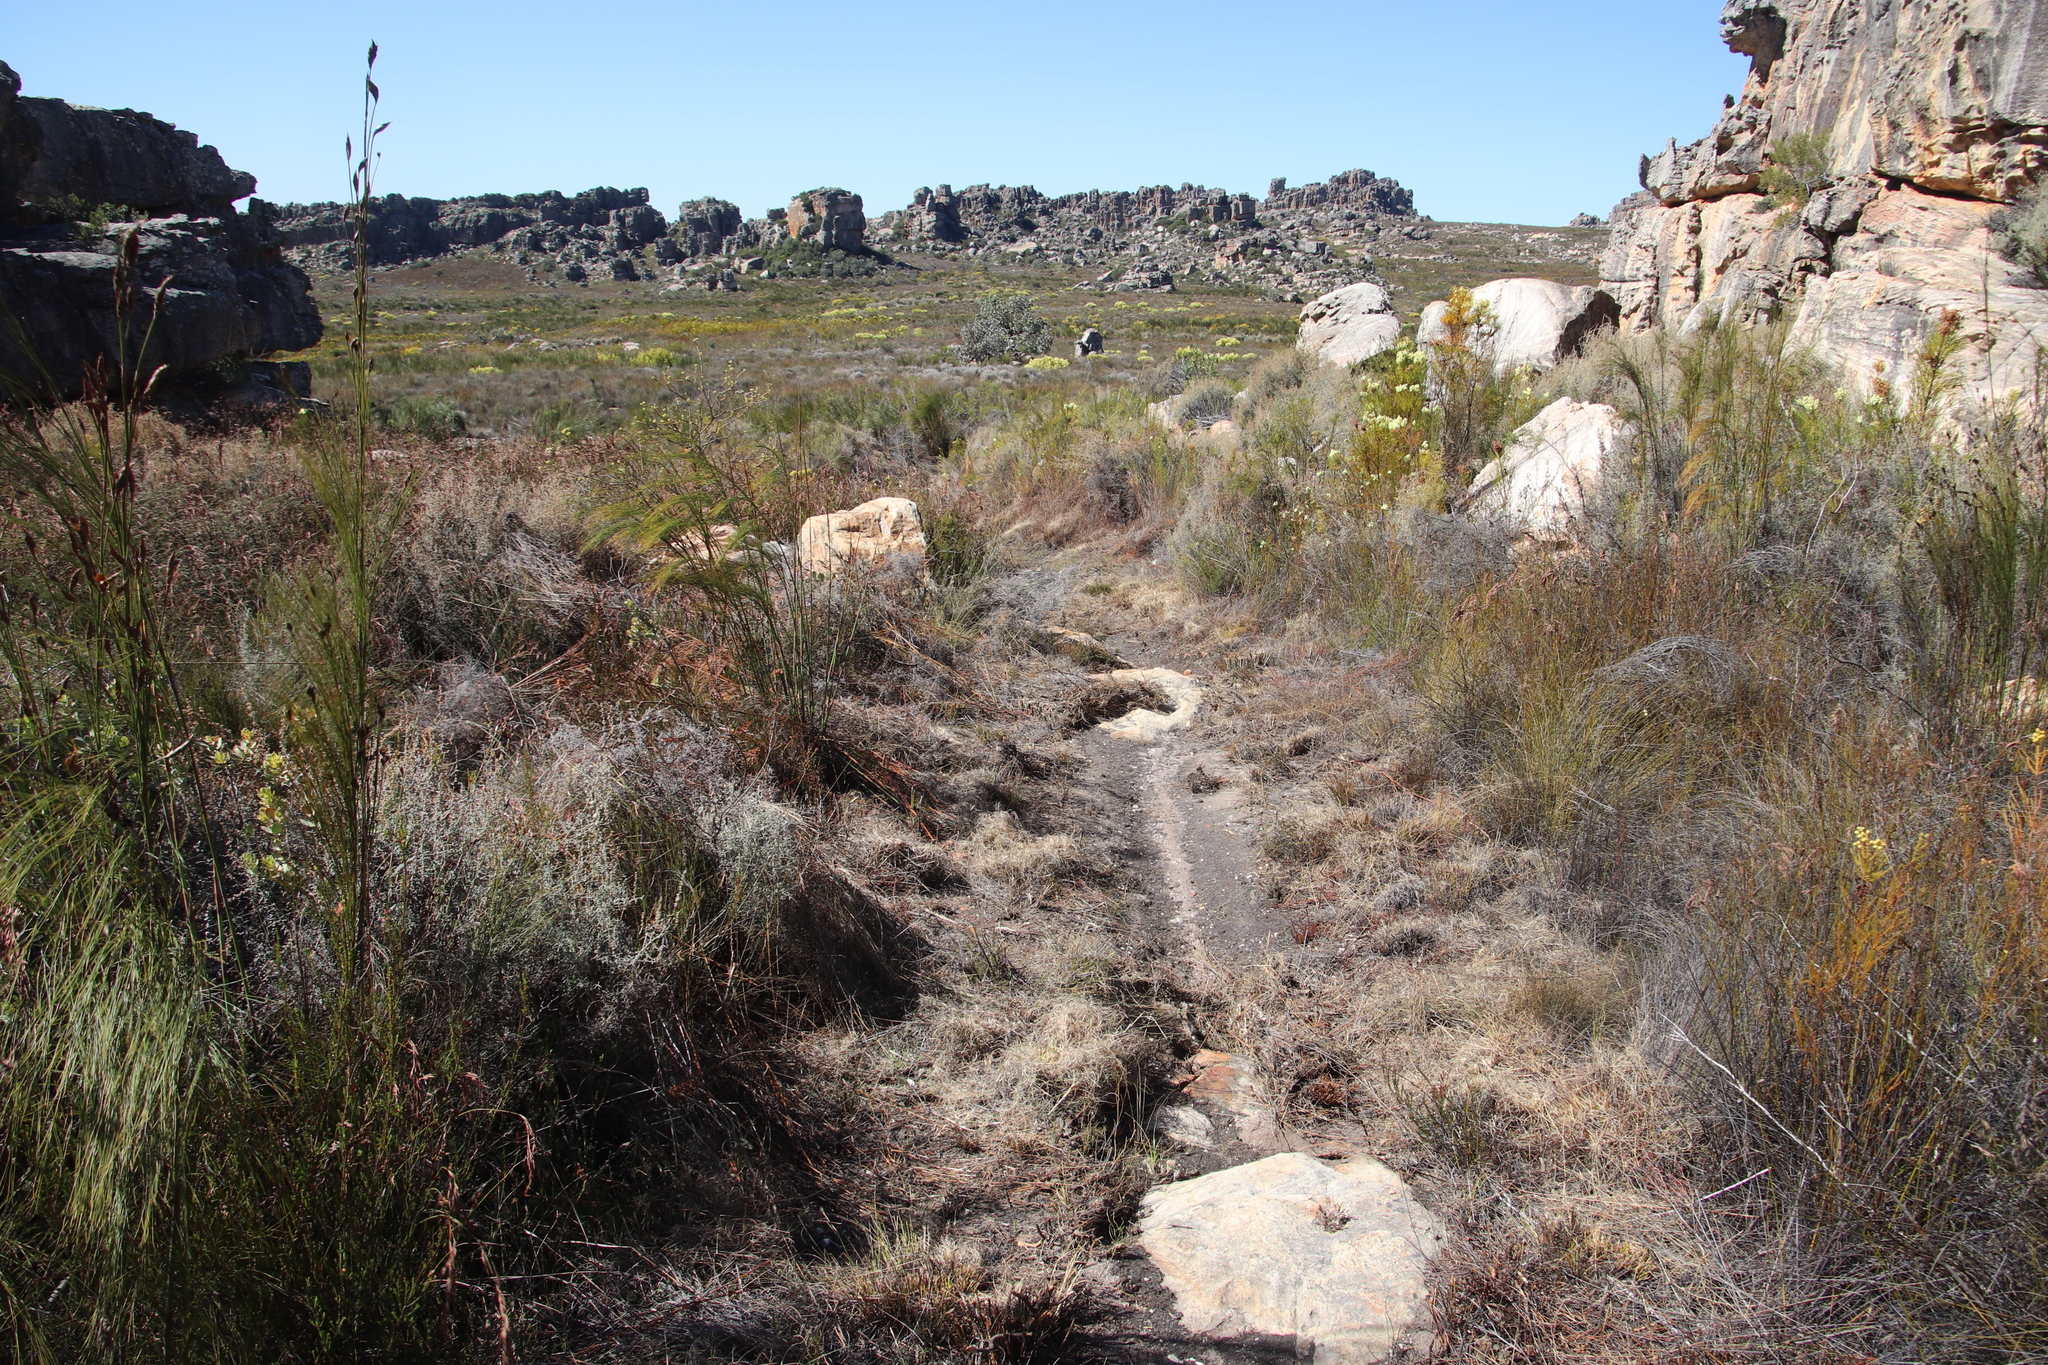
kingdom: Plantae
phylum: Tracheophyta
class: Liliopsida
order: Poales
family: Restionaceae
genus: Cannomois
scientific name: Cannomois robusta
